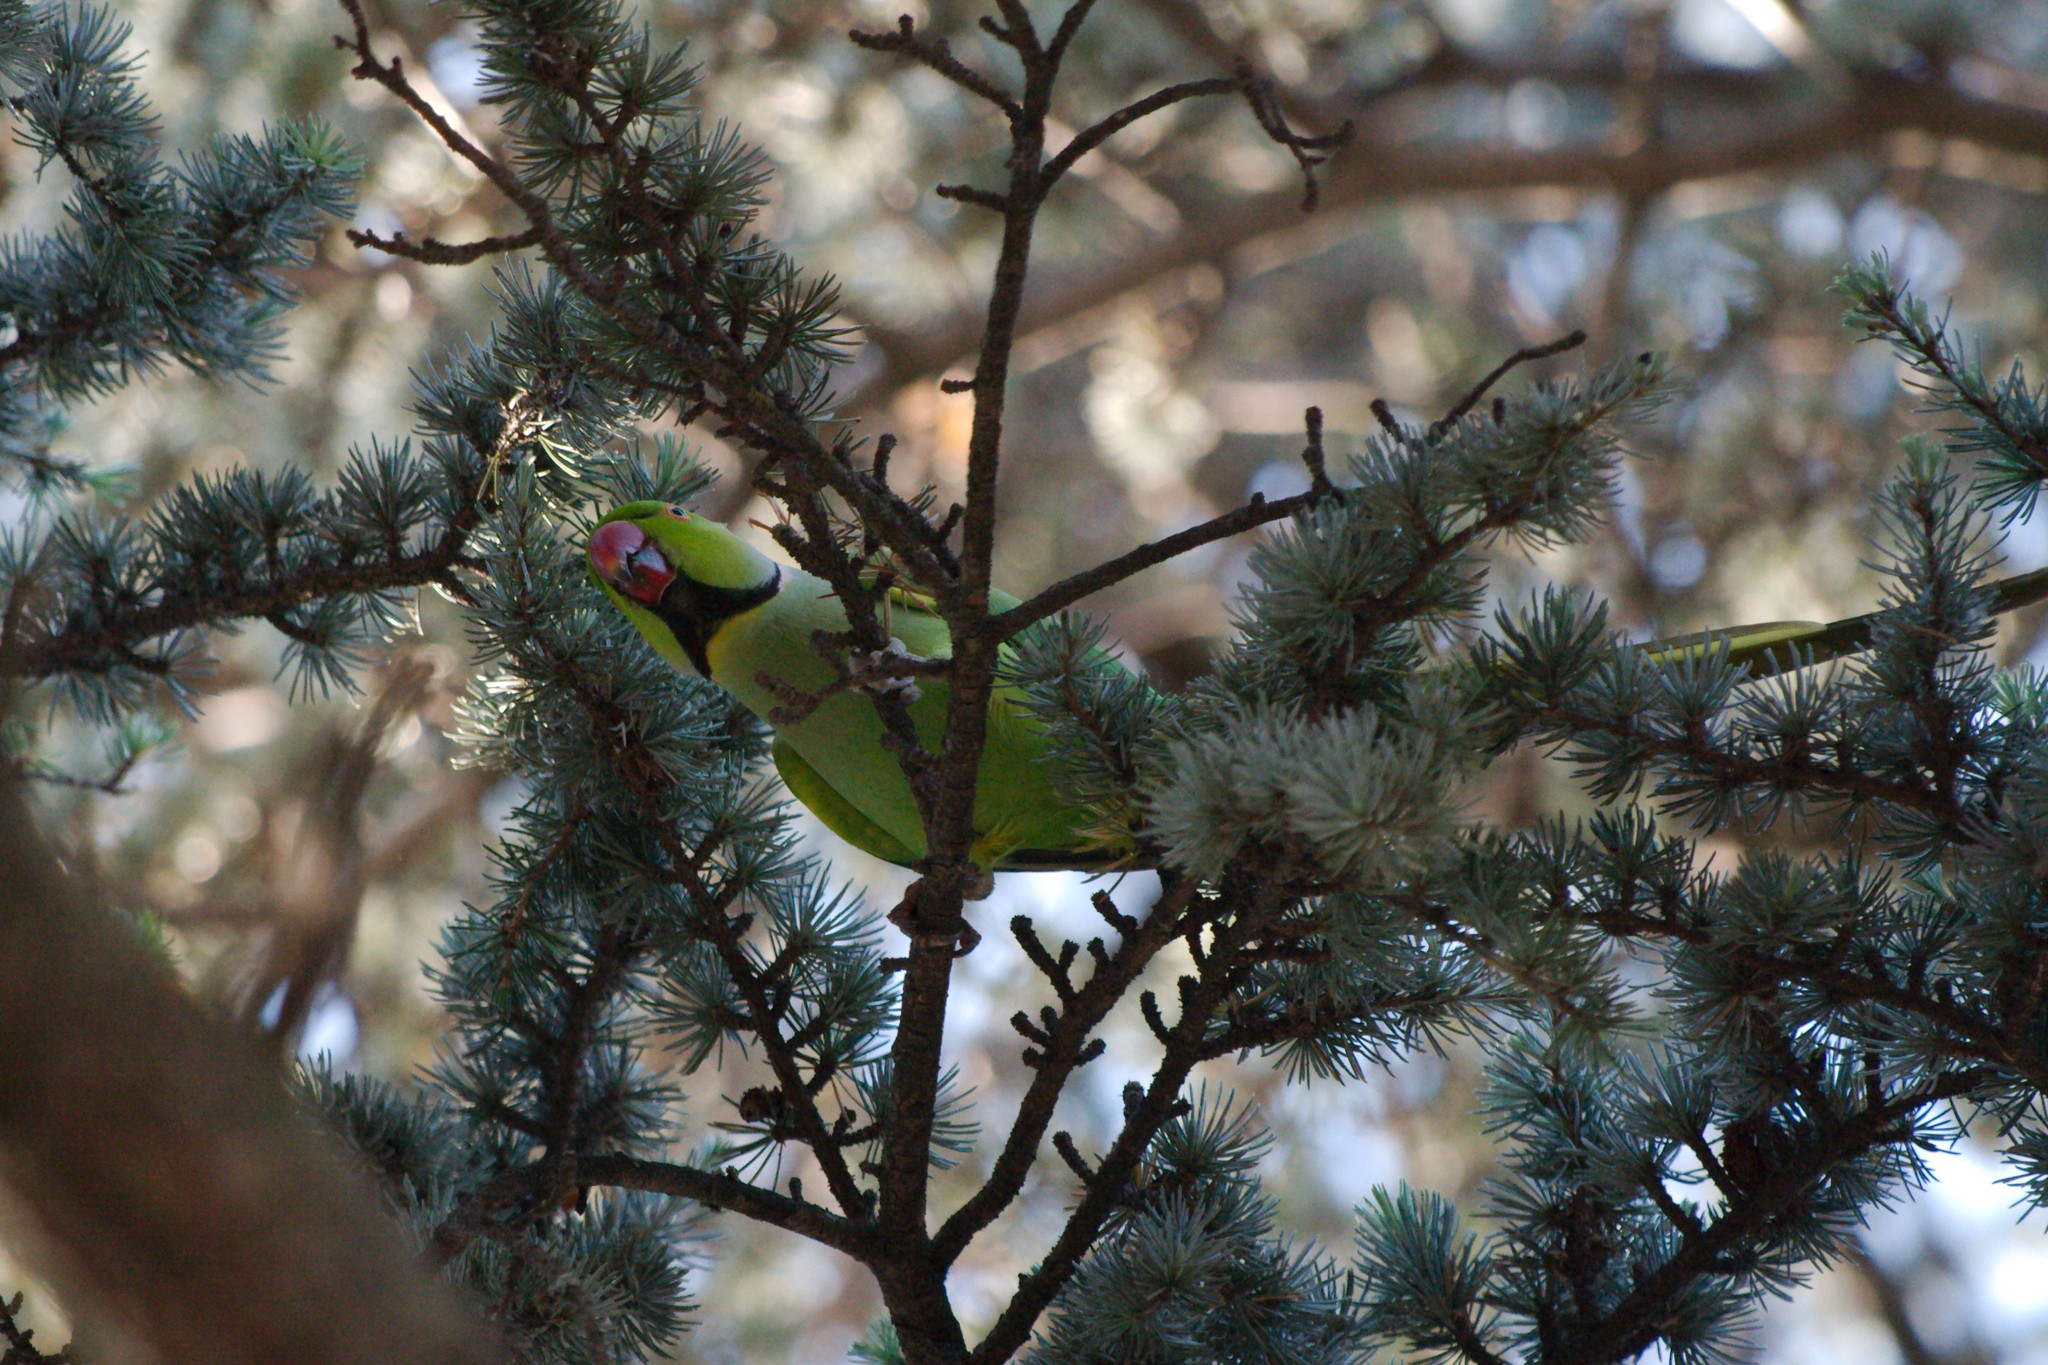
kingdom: Animalia
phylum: Chordata
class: Aves
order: Psittaciformes
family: Psittacidae
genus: Psittacula
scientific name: Psittacula krameri
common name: Rose-ringed parakeet
